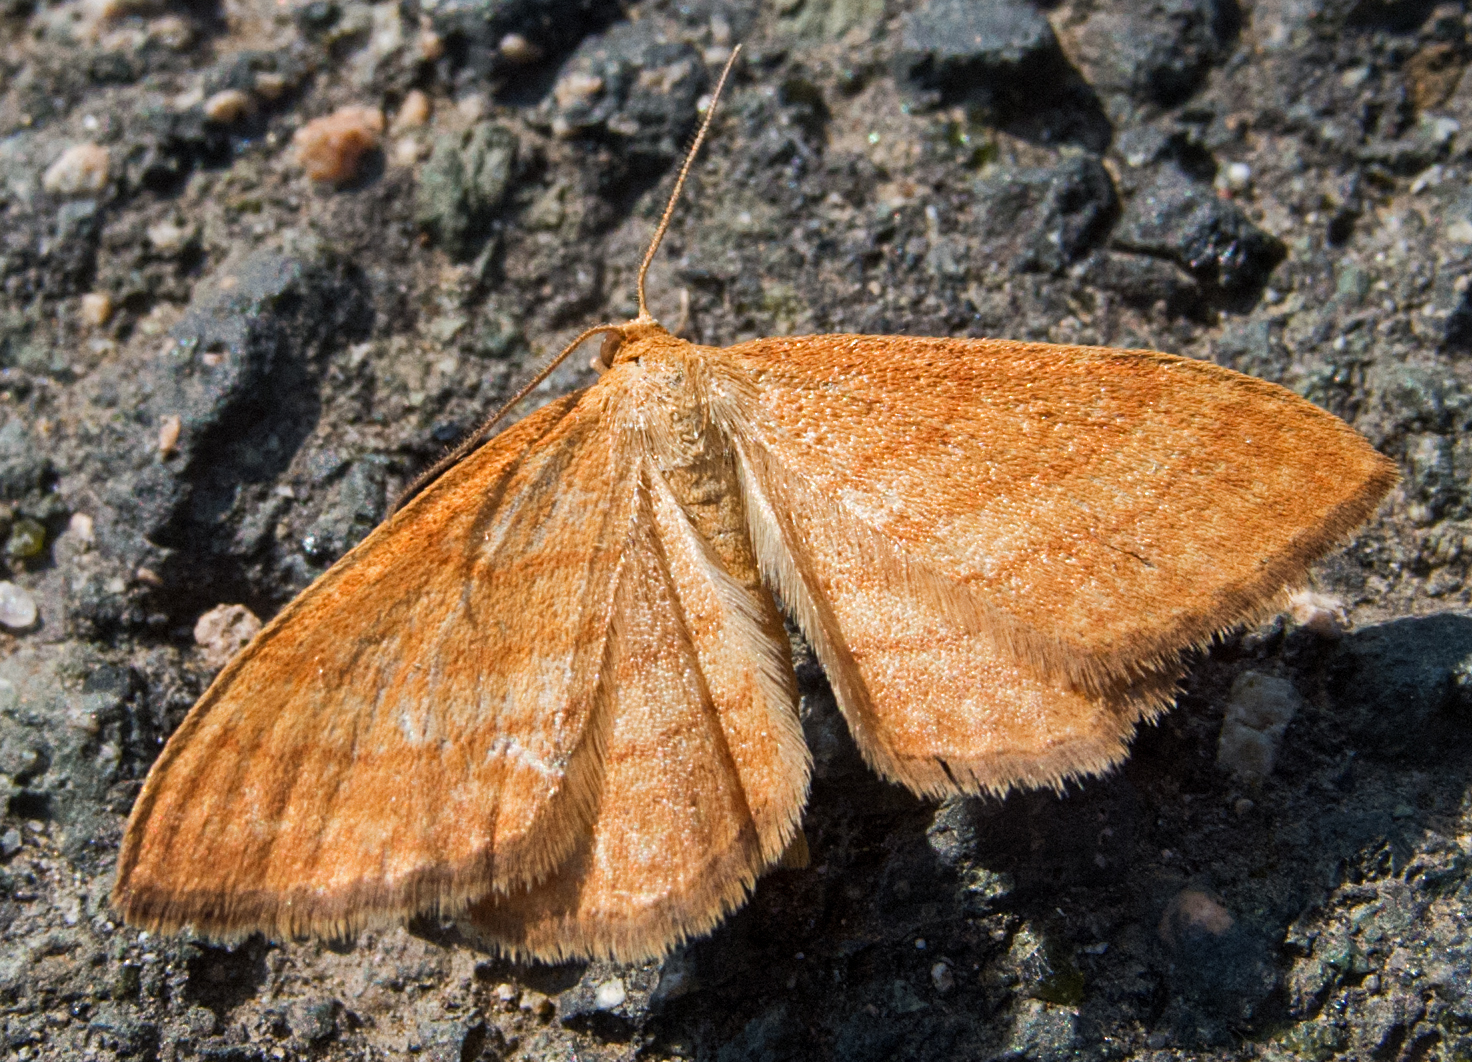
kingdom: Animalia
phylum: Arthropoda
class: Insecta
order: Lepidoptera
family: Geometridae
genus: Idaea
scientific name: Idaea serpentata
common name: Ochraceous wave
